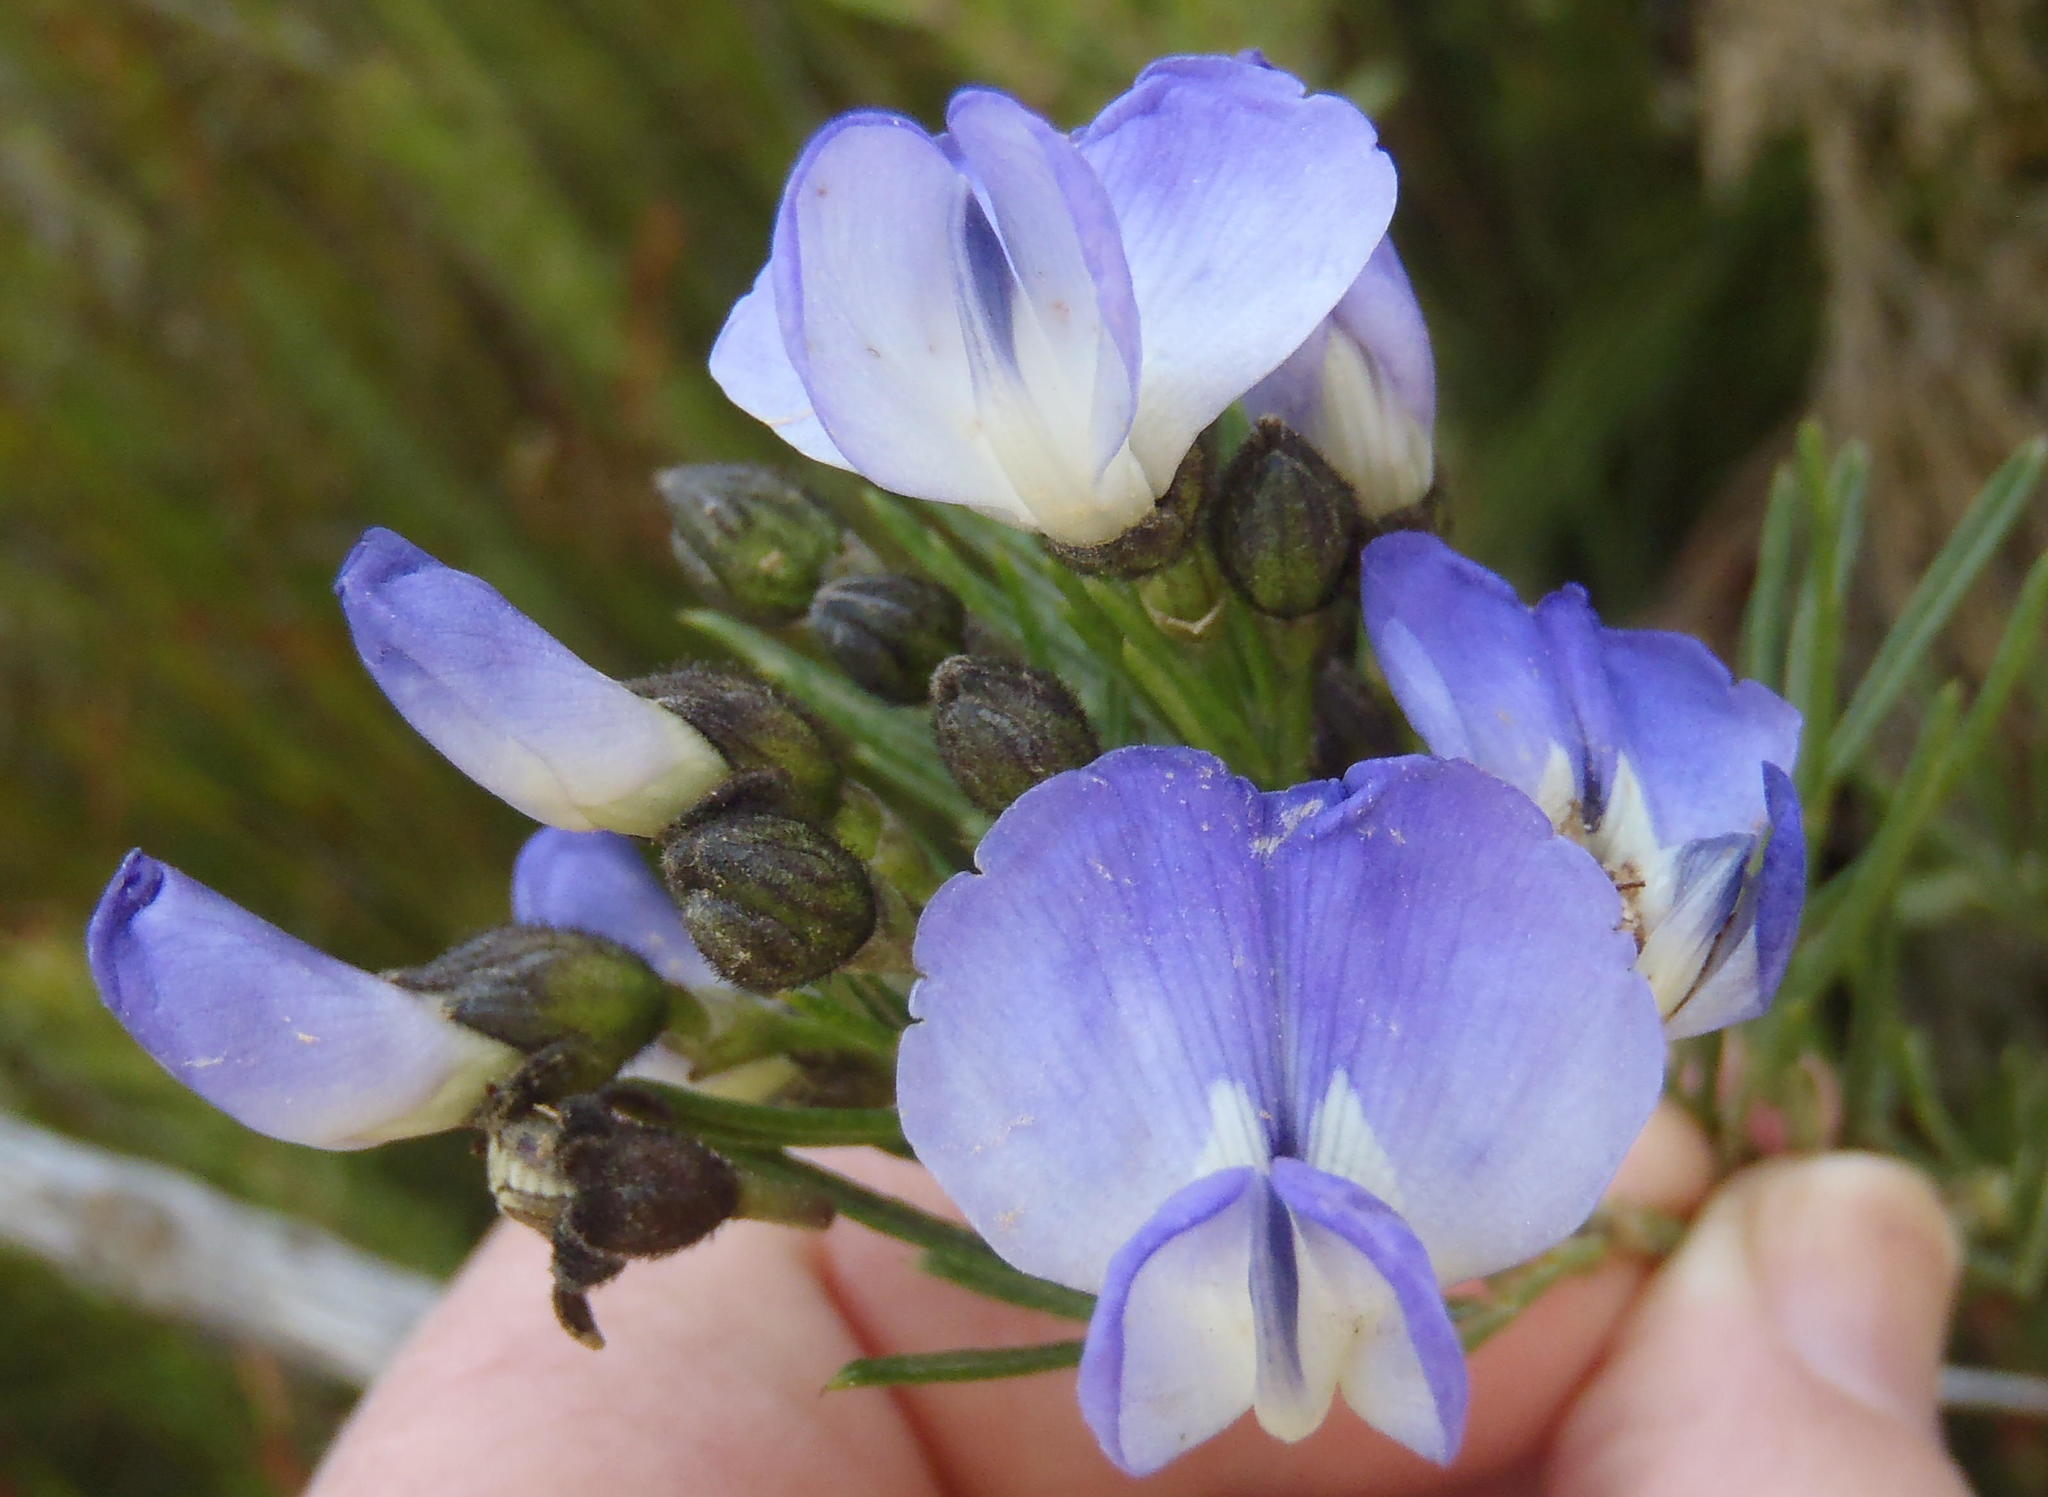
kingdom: Plantae
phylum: Tracheophyta
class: Magnoliopsida
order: Fabales
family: Fabaceae
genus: Psoralea
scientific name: Psoralea affinis
